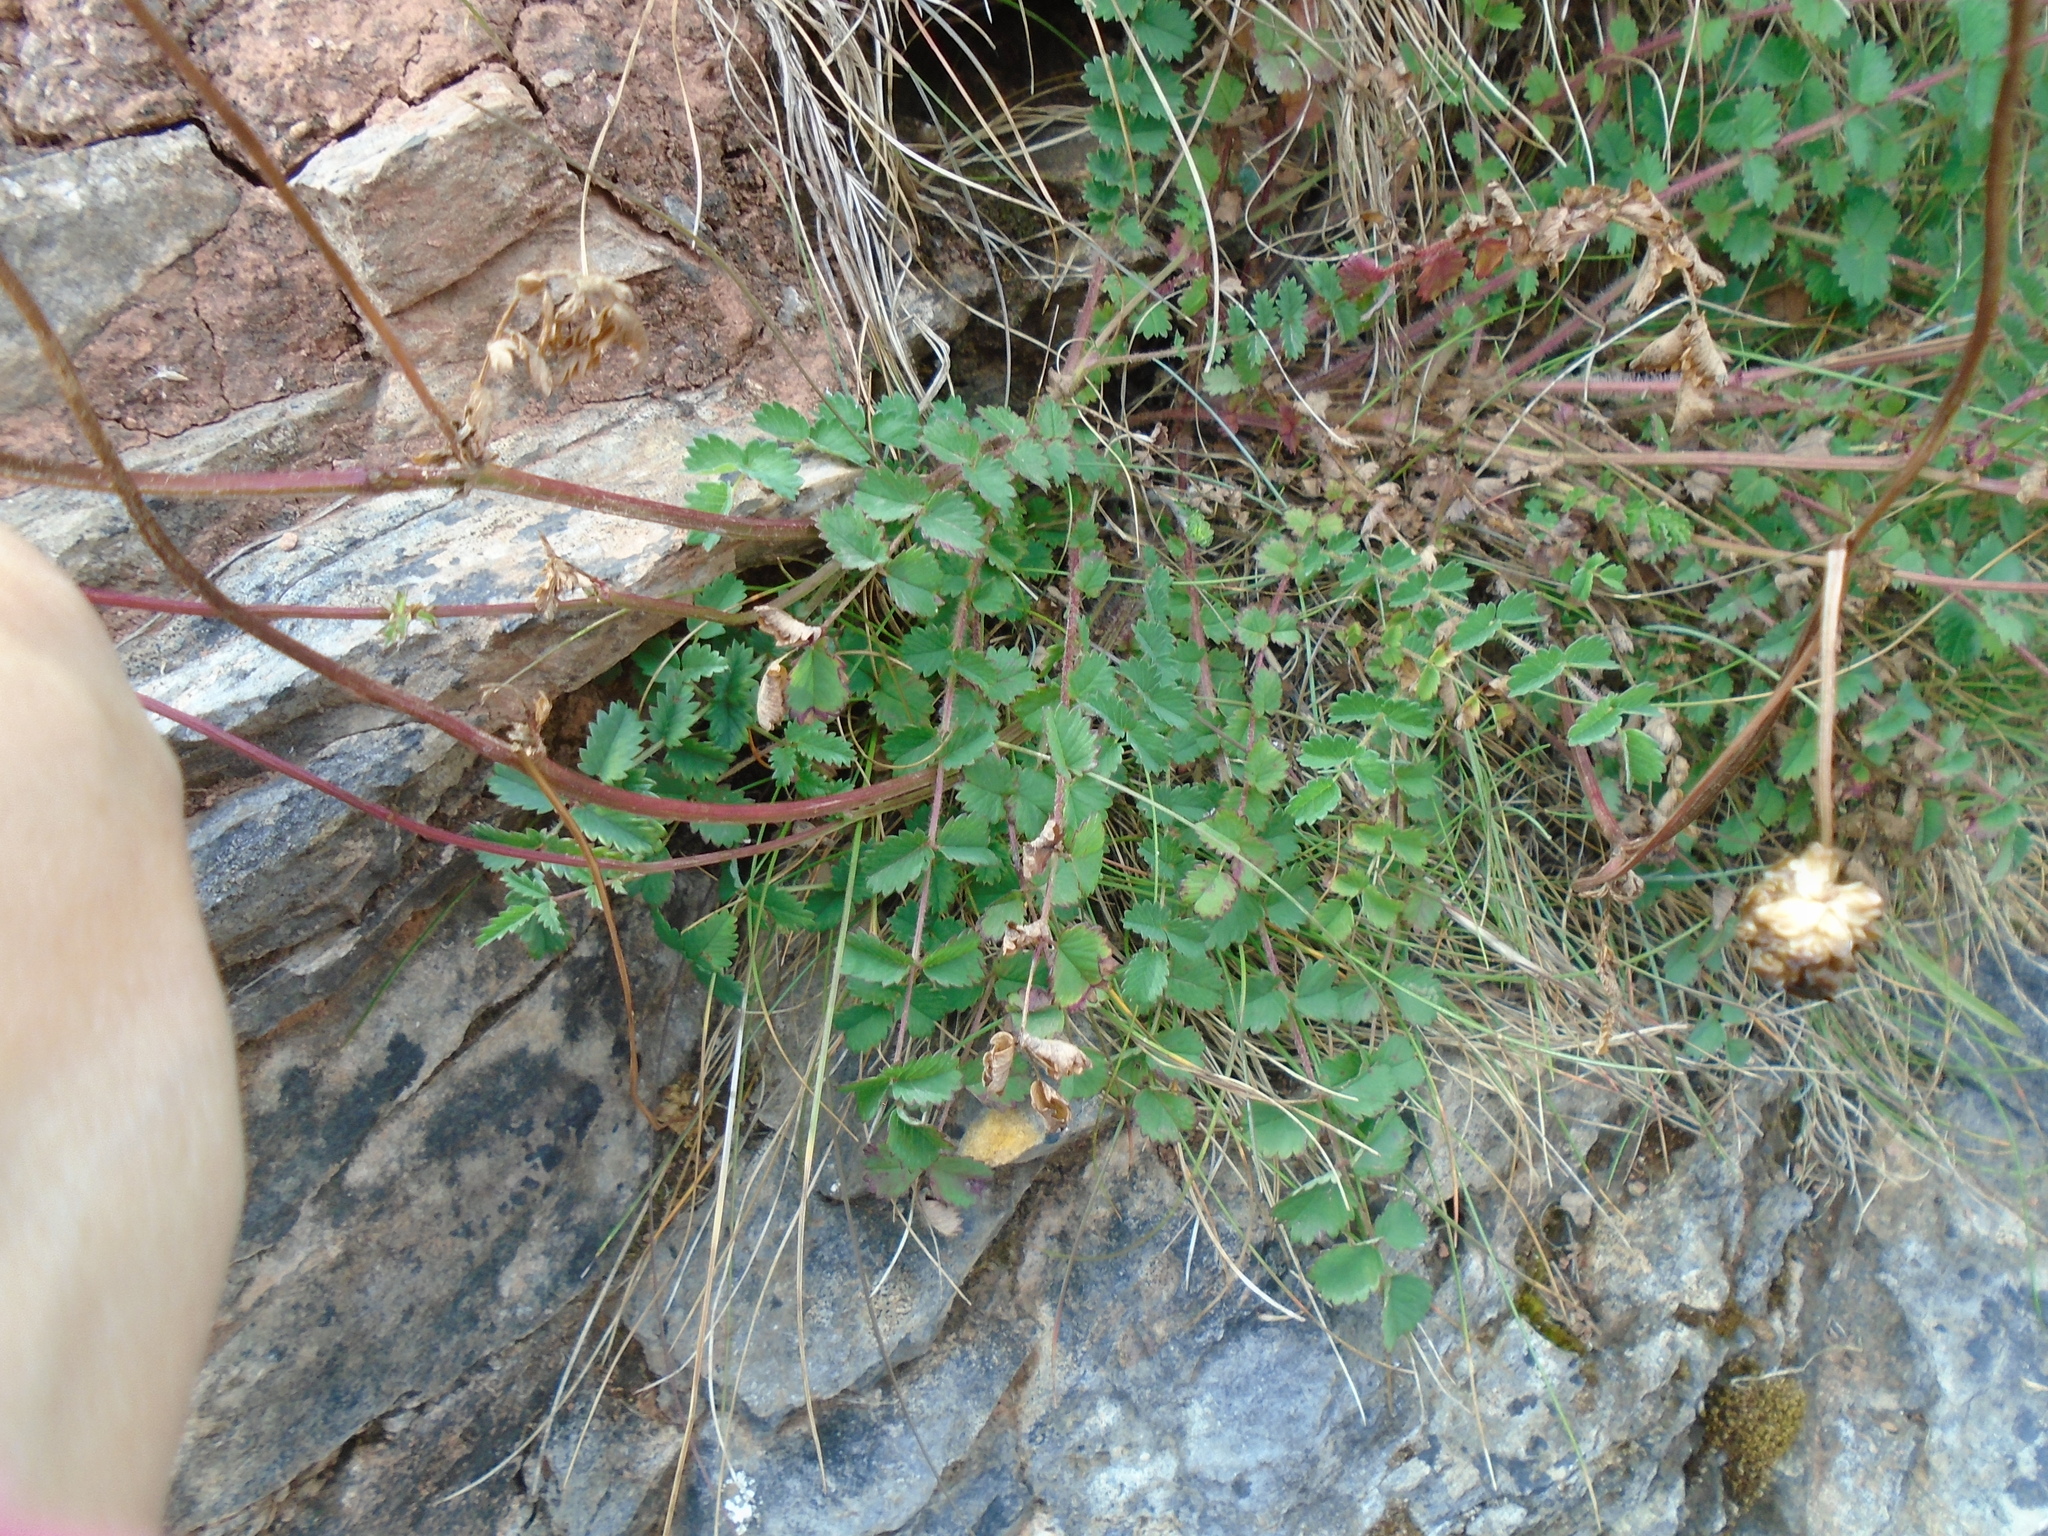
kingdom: Plantae
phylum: Tracheophyta
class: Magnoliopsida
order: Rosales
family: Rosaceae
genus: Poterium
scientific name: Poterium sanguisorba
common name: Salad burnet
